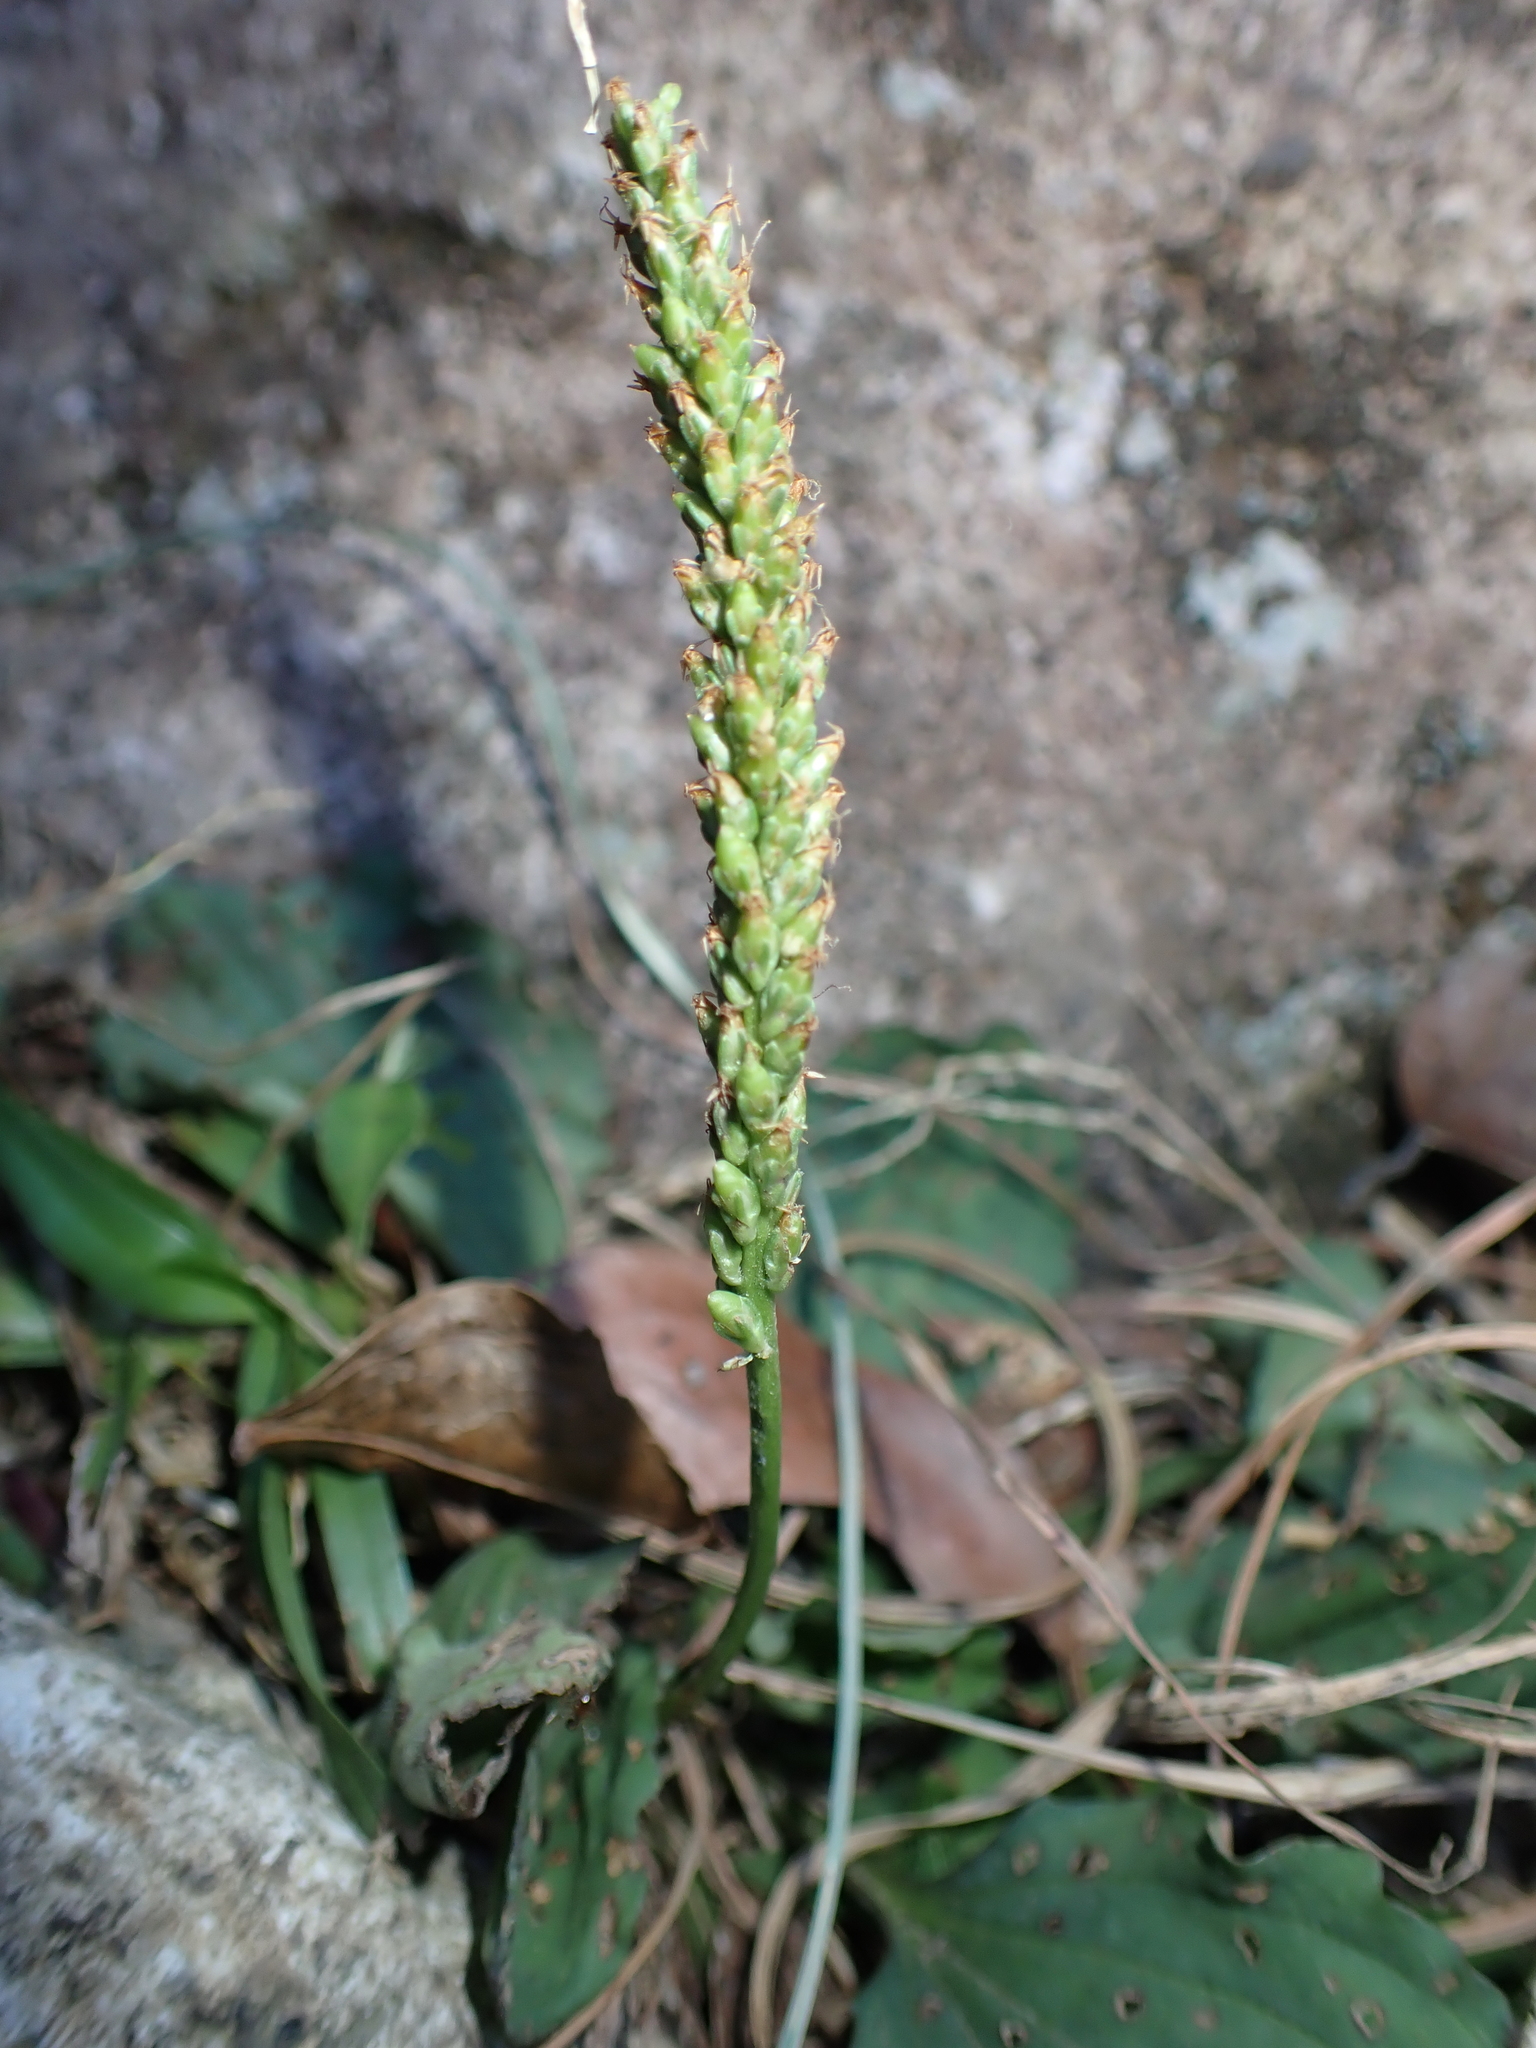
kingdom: Plantae
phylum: Tracheophyta
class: Magnoliopsida
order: Lamiales
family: Plantaginaceae
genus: Plantago
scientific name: Plantago asiatica
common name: Psyllium
